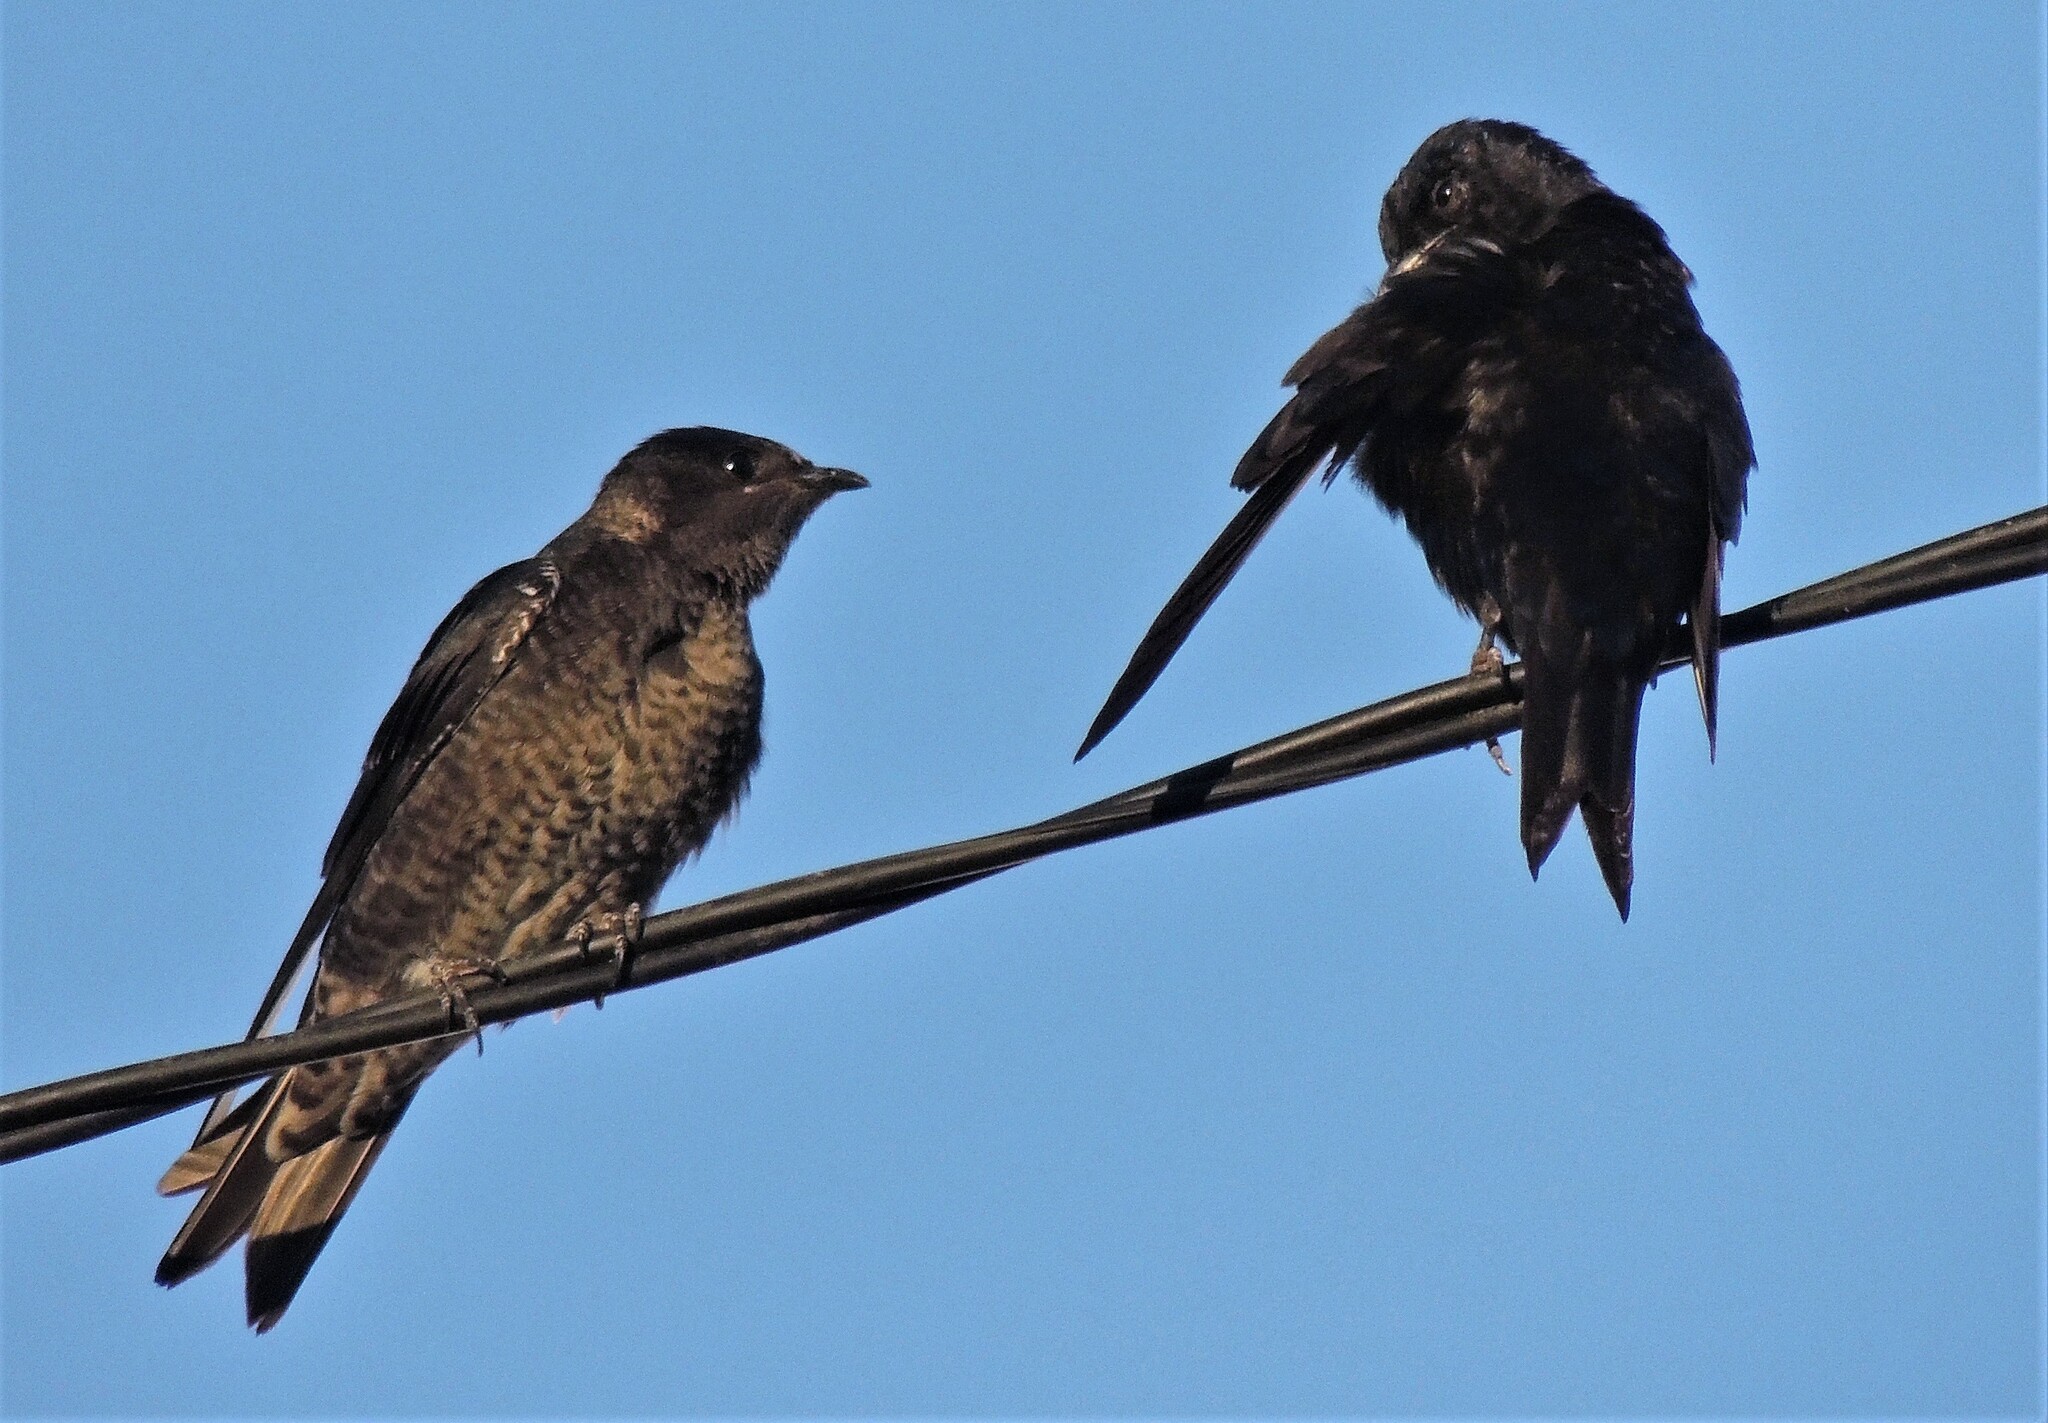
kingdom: Animalia
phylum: Chordata
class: Aves
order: Passeriformes
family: Hirundinidae
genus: Progne
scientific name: Progne elegans
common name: Southern martin
